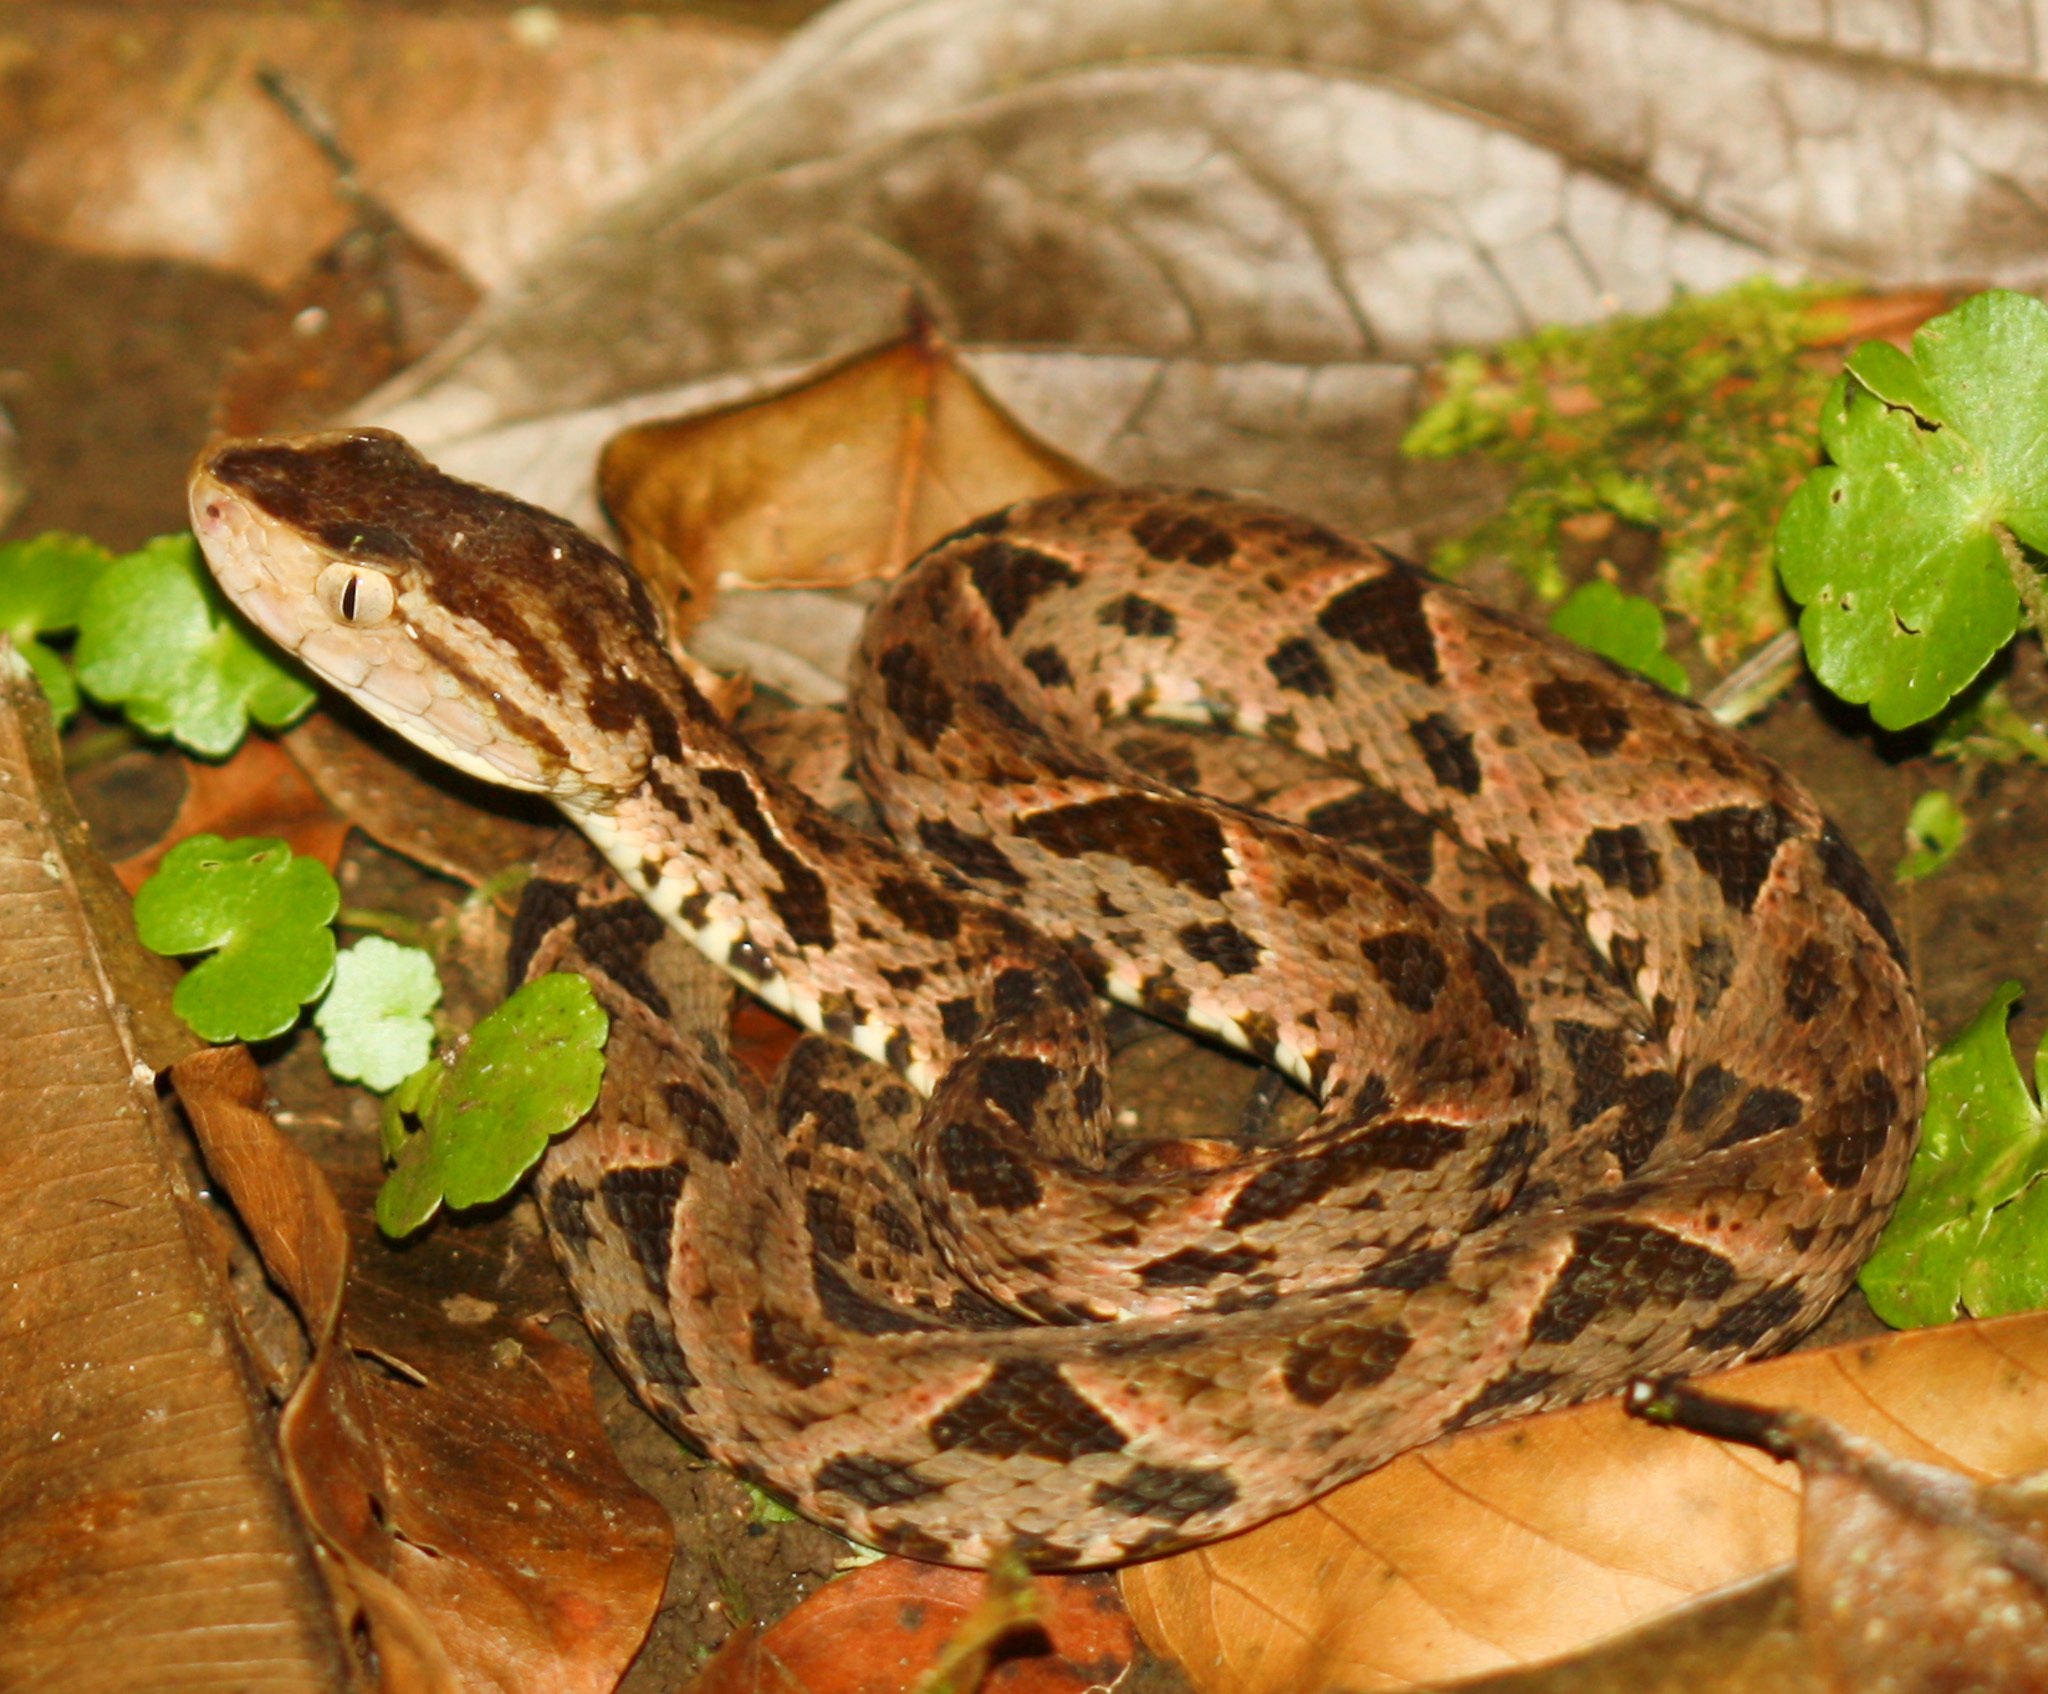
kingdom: Animalia
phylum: Chordata
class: Squamata
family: Viperidae
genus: Bothrops
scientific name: Bothrops asper
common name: Terciopelo
